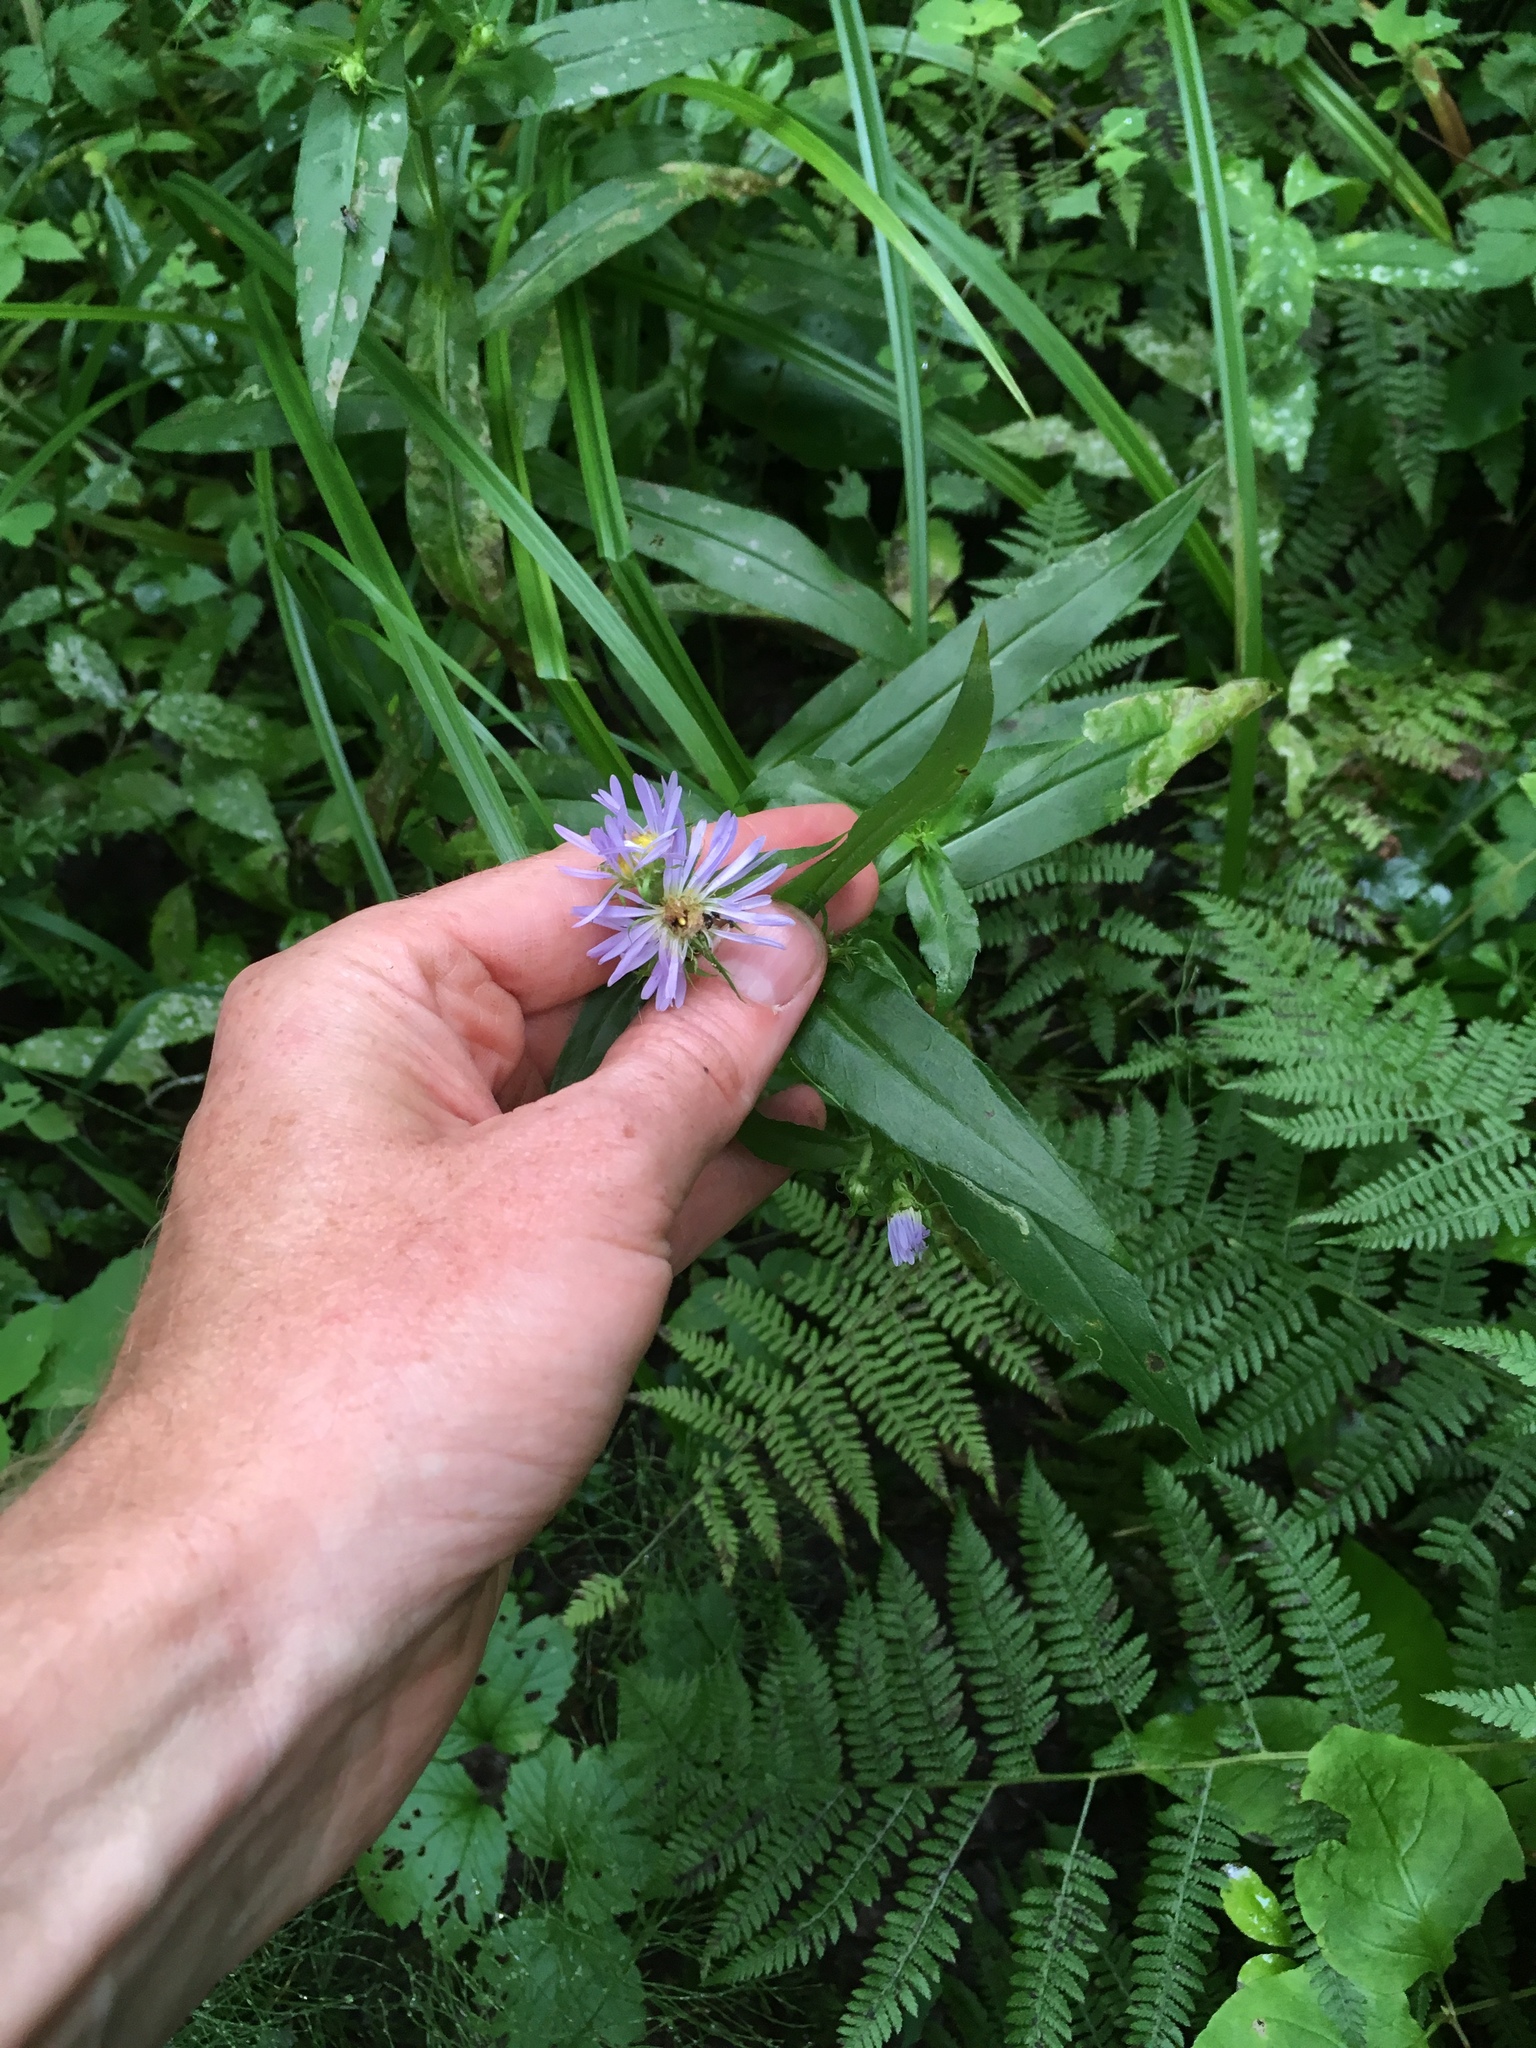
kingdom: Plantae
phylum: Tracheophyta
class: Magnoliopsida
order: Asterales
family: Asteraceae
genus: Symphyotrichum
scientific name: Symphyotrichum puniceum
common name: Bog aster
